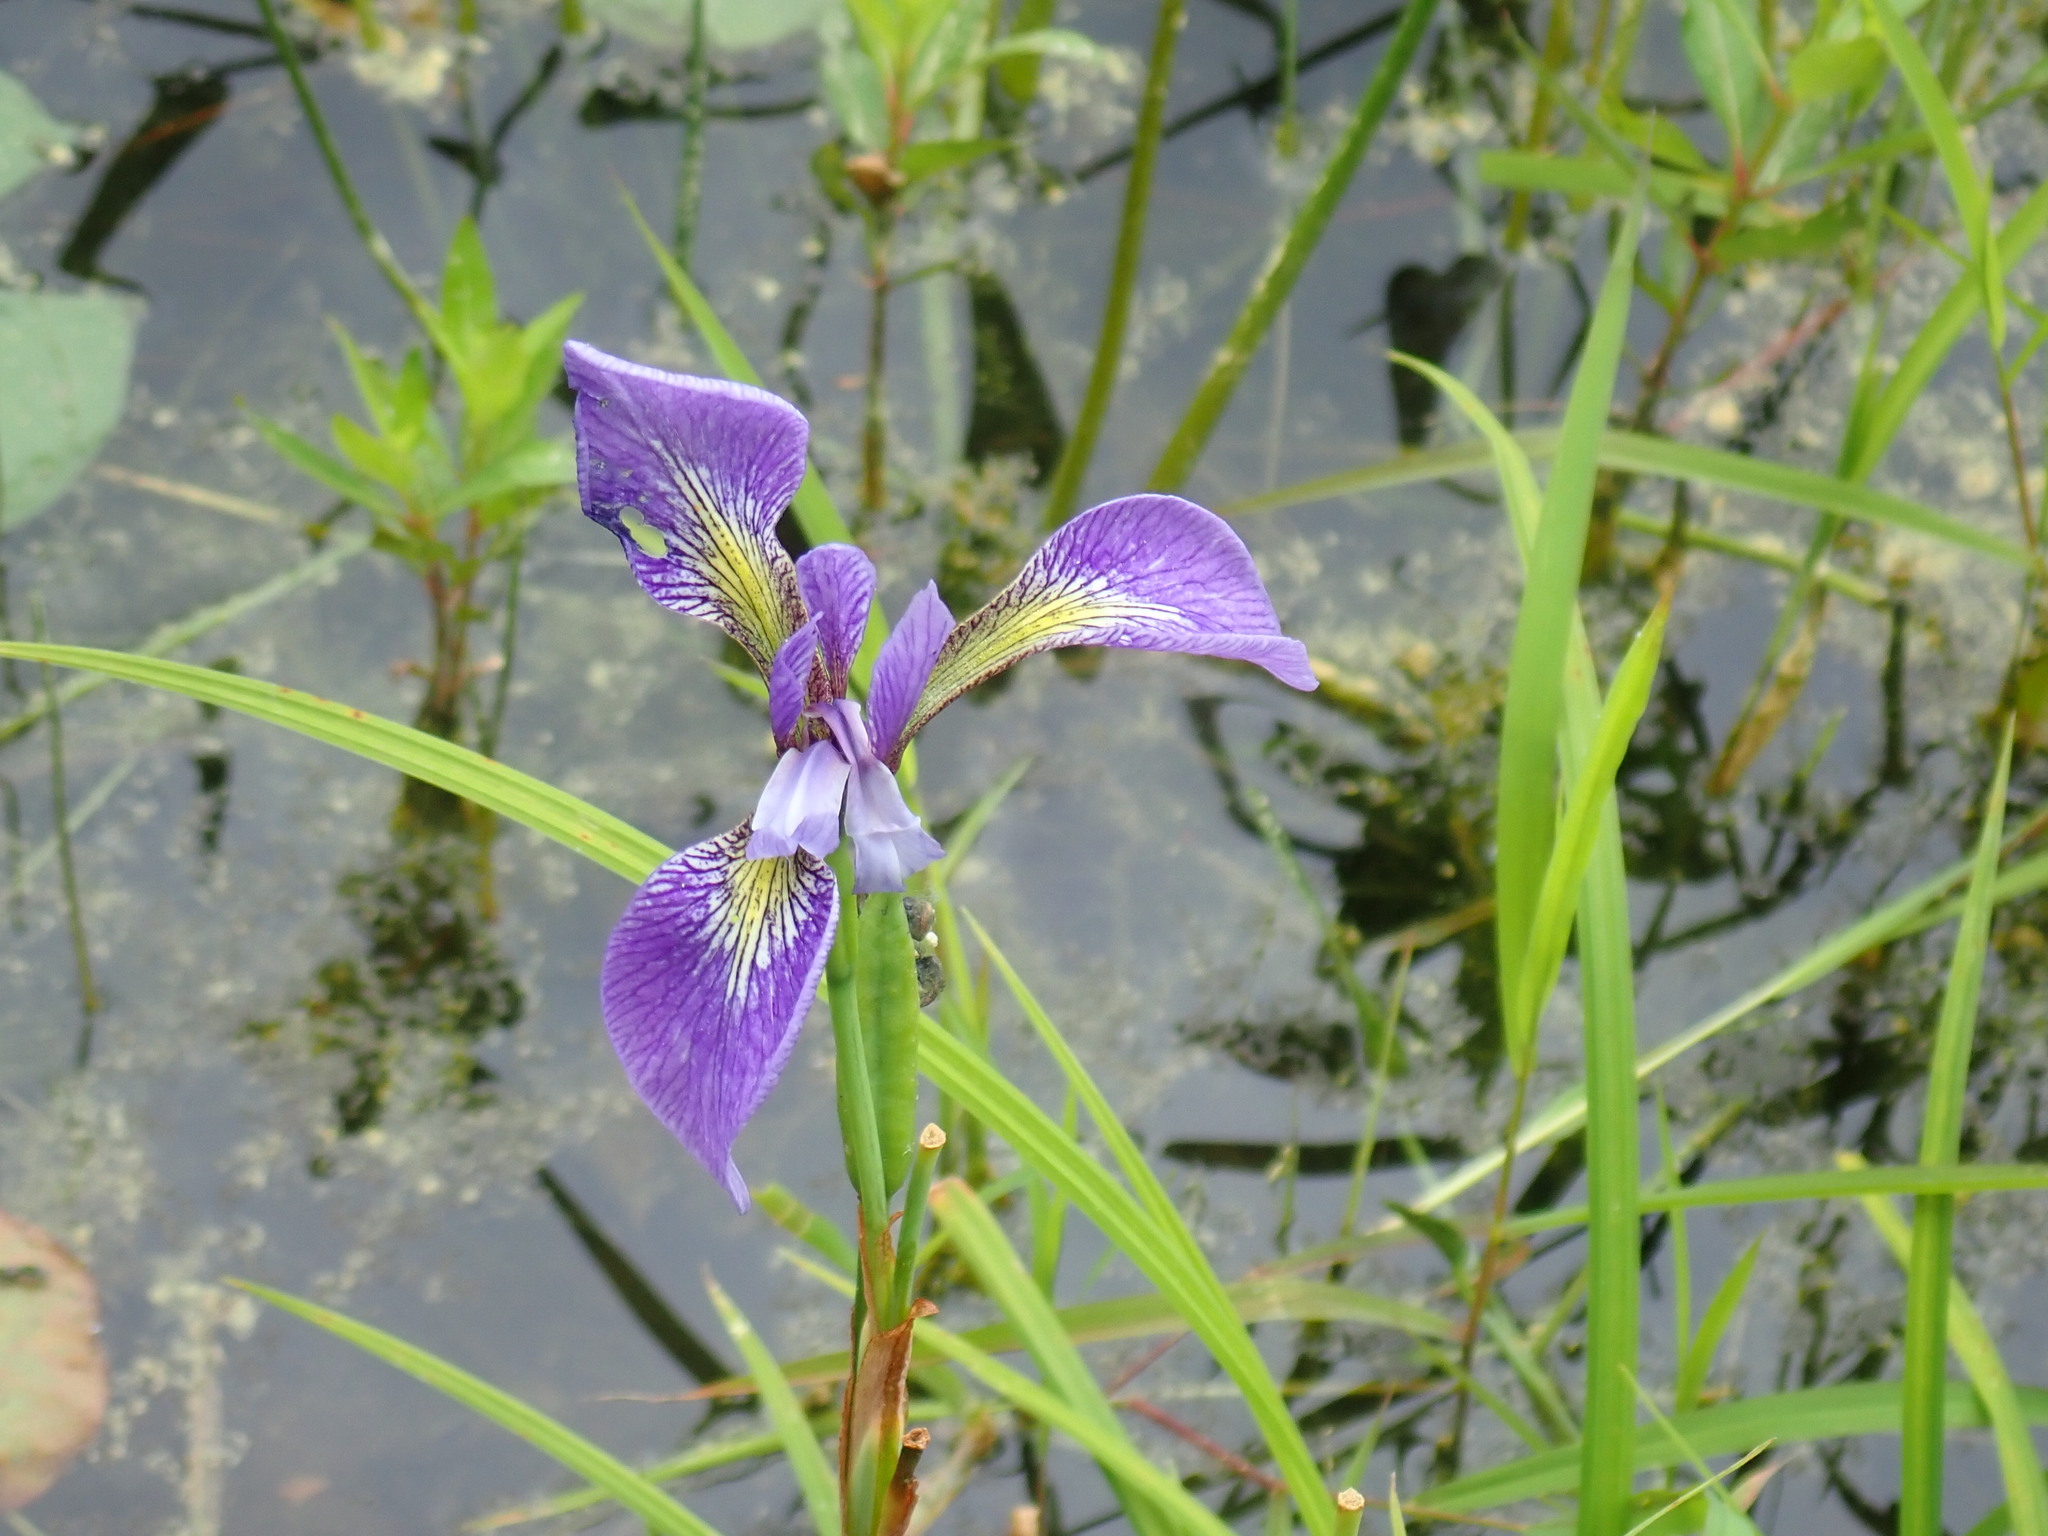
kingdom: Plantae
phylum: Tracheophyta
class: Liliopsida
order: Asparagales
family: Iridaceae
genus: Iris
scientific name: Iris versicolor
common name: Purple iris
